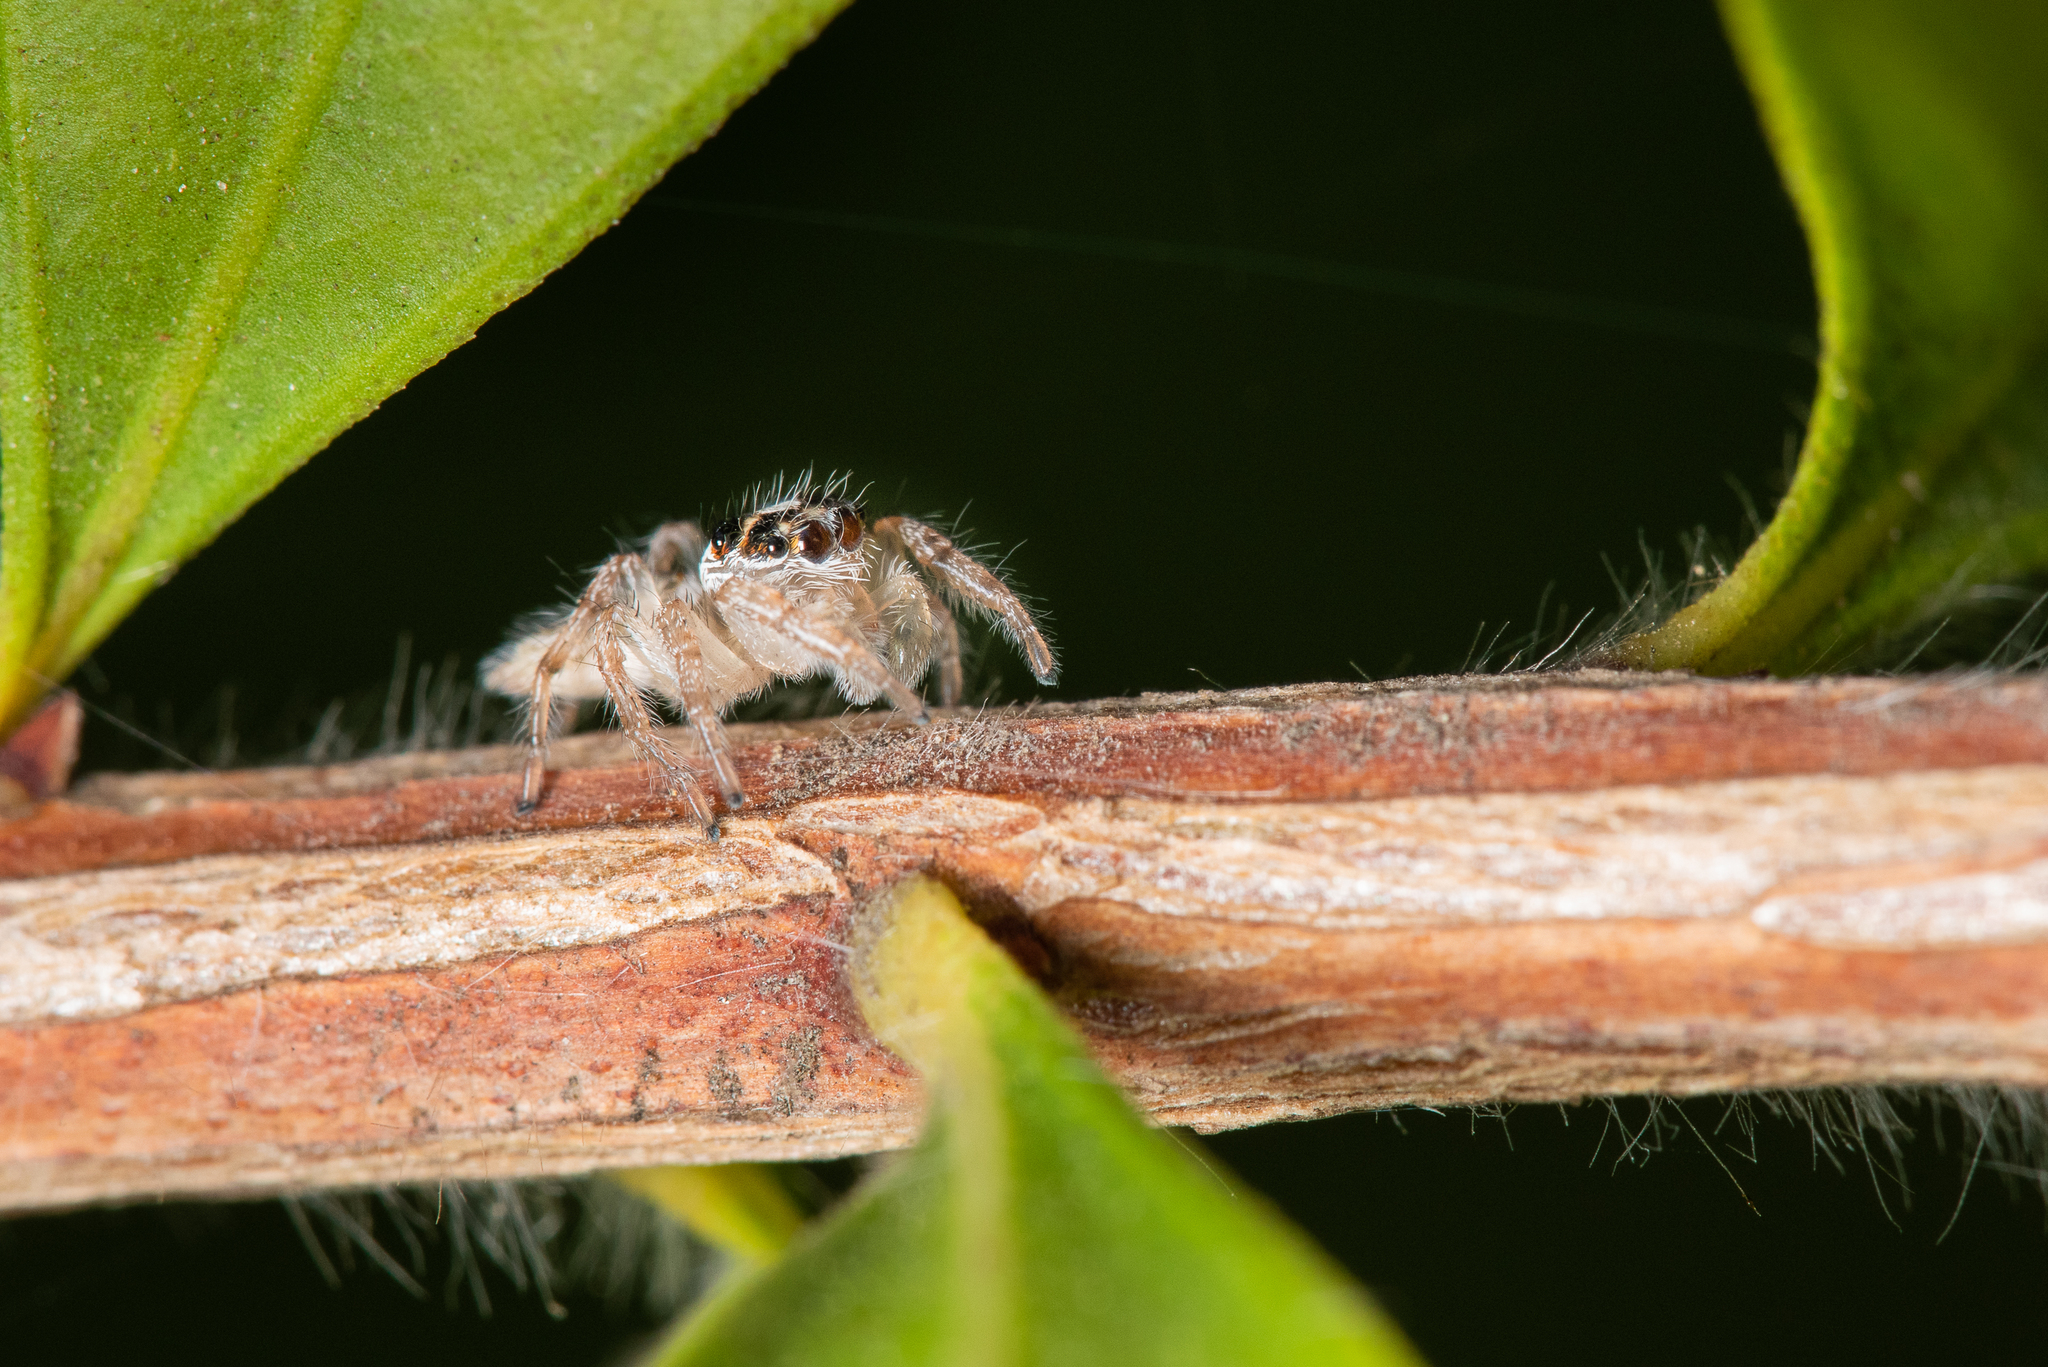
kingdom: Animalia
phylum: Arthropoda
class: Arachnida
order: Araneae
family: Salticidae
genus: Colonus
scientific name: Colonus hesperus
